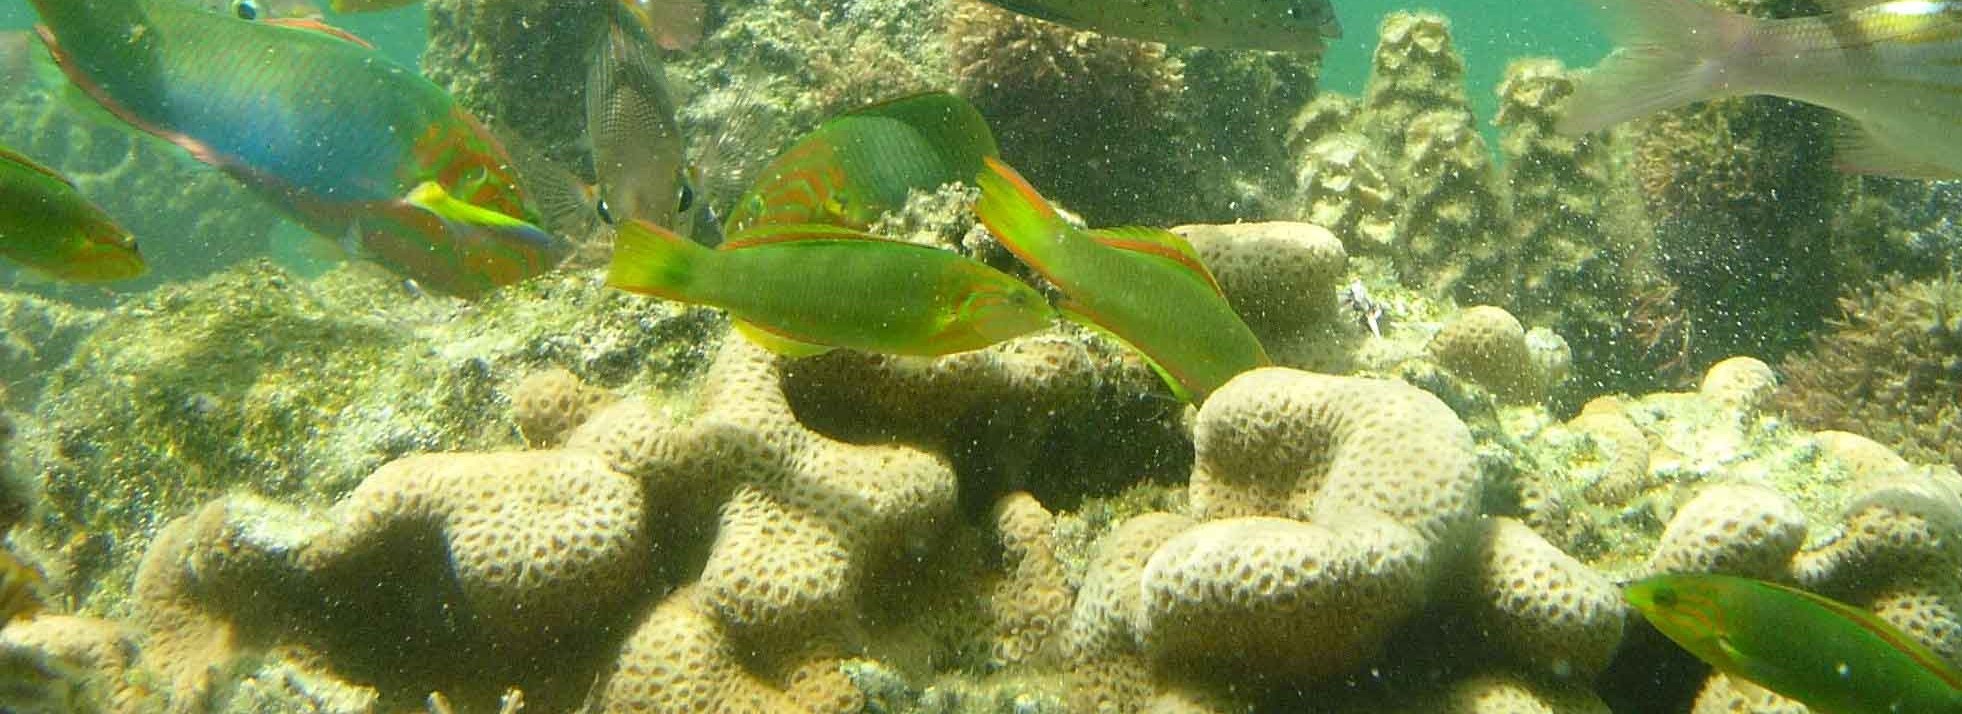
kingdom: Animalia
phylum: Chordata
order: Perciformes
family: Labridae
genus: Thalassoma
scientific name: Thalassoma lutescens
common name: Green moon wrasse
